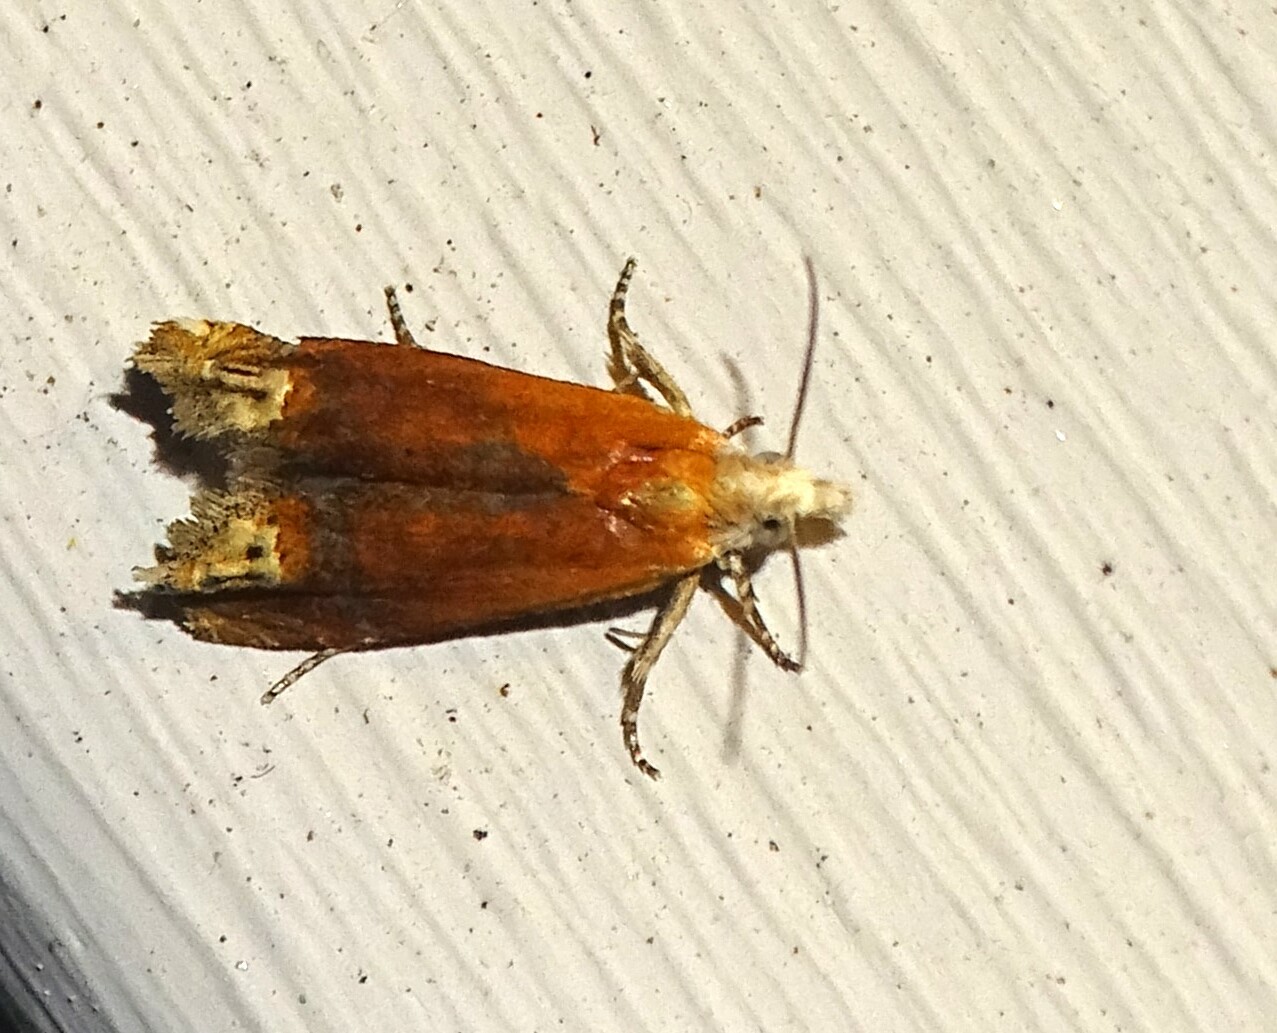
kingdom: Animalia
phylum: Arthropoda
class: Insecta
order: Lepidoptera
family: Tortricidae
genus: Eucosma
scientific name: Eucosma raracana
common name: Reddish eucosma moth
